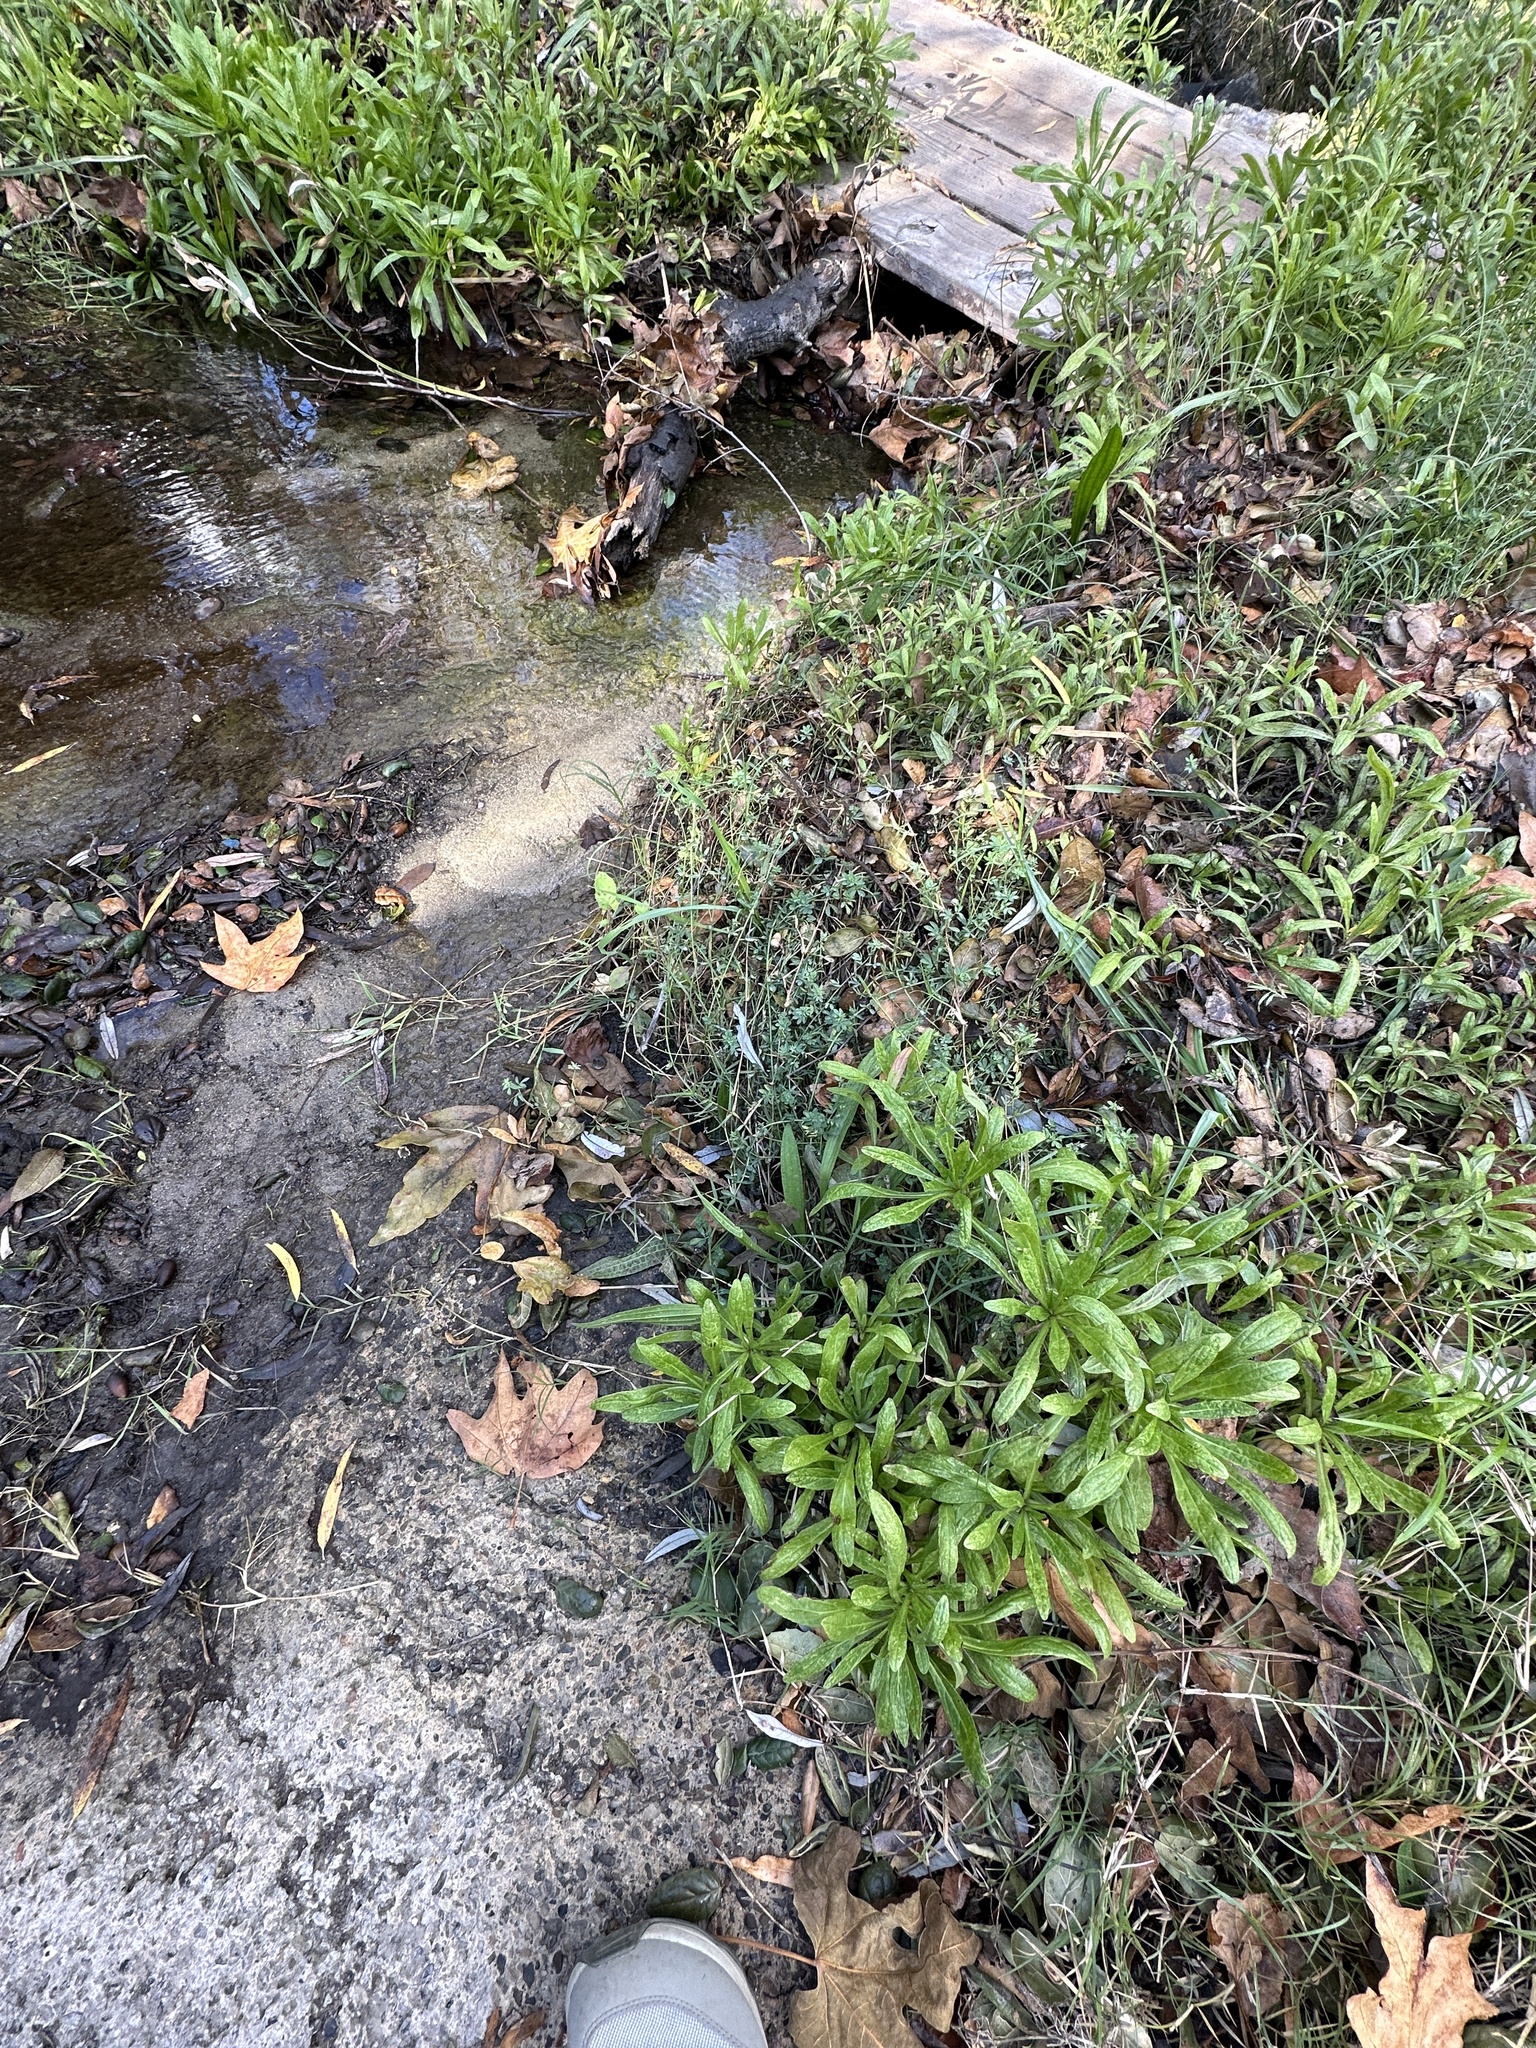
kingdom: Plantae
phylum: Tracheophyta
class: Magnoliopsida
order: Asterales
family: Asteraceae
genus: Pulicaria
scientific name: Pulicaria paludosa
